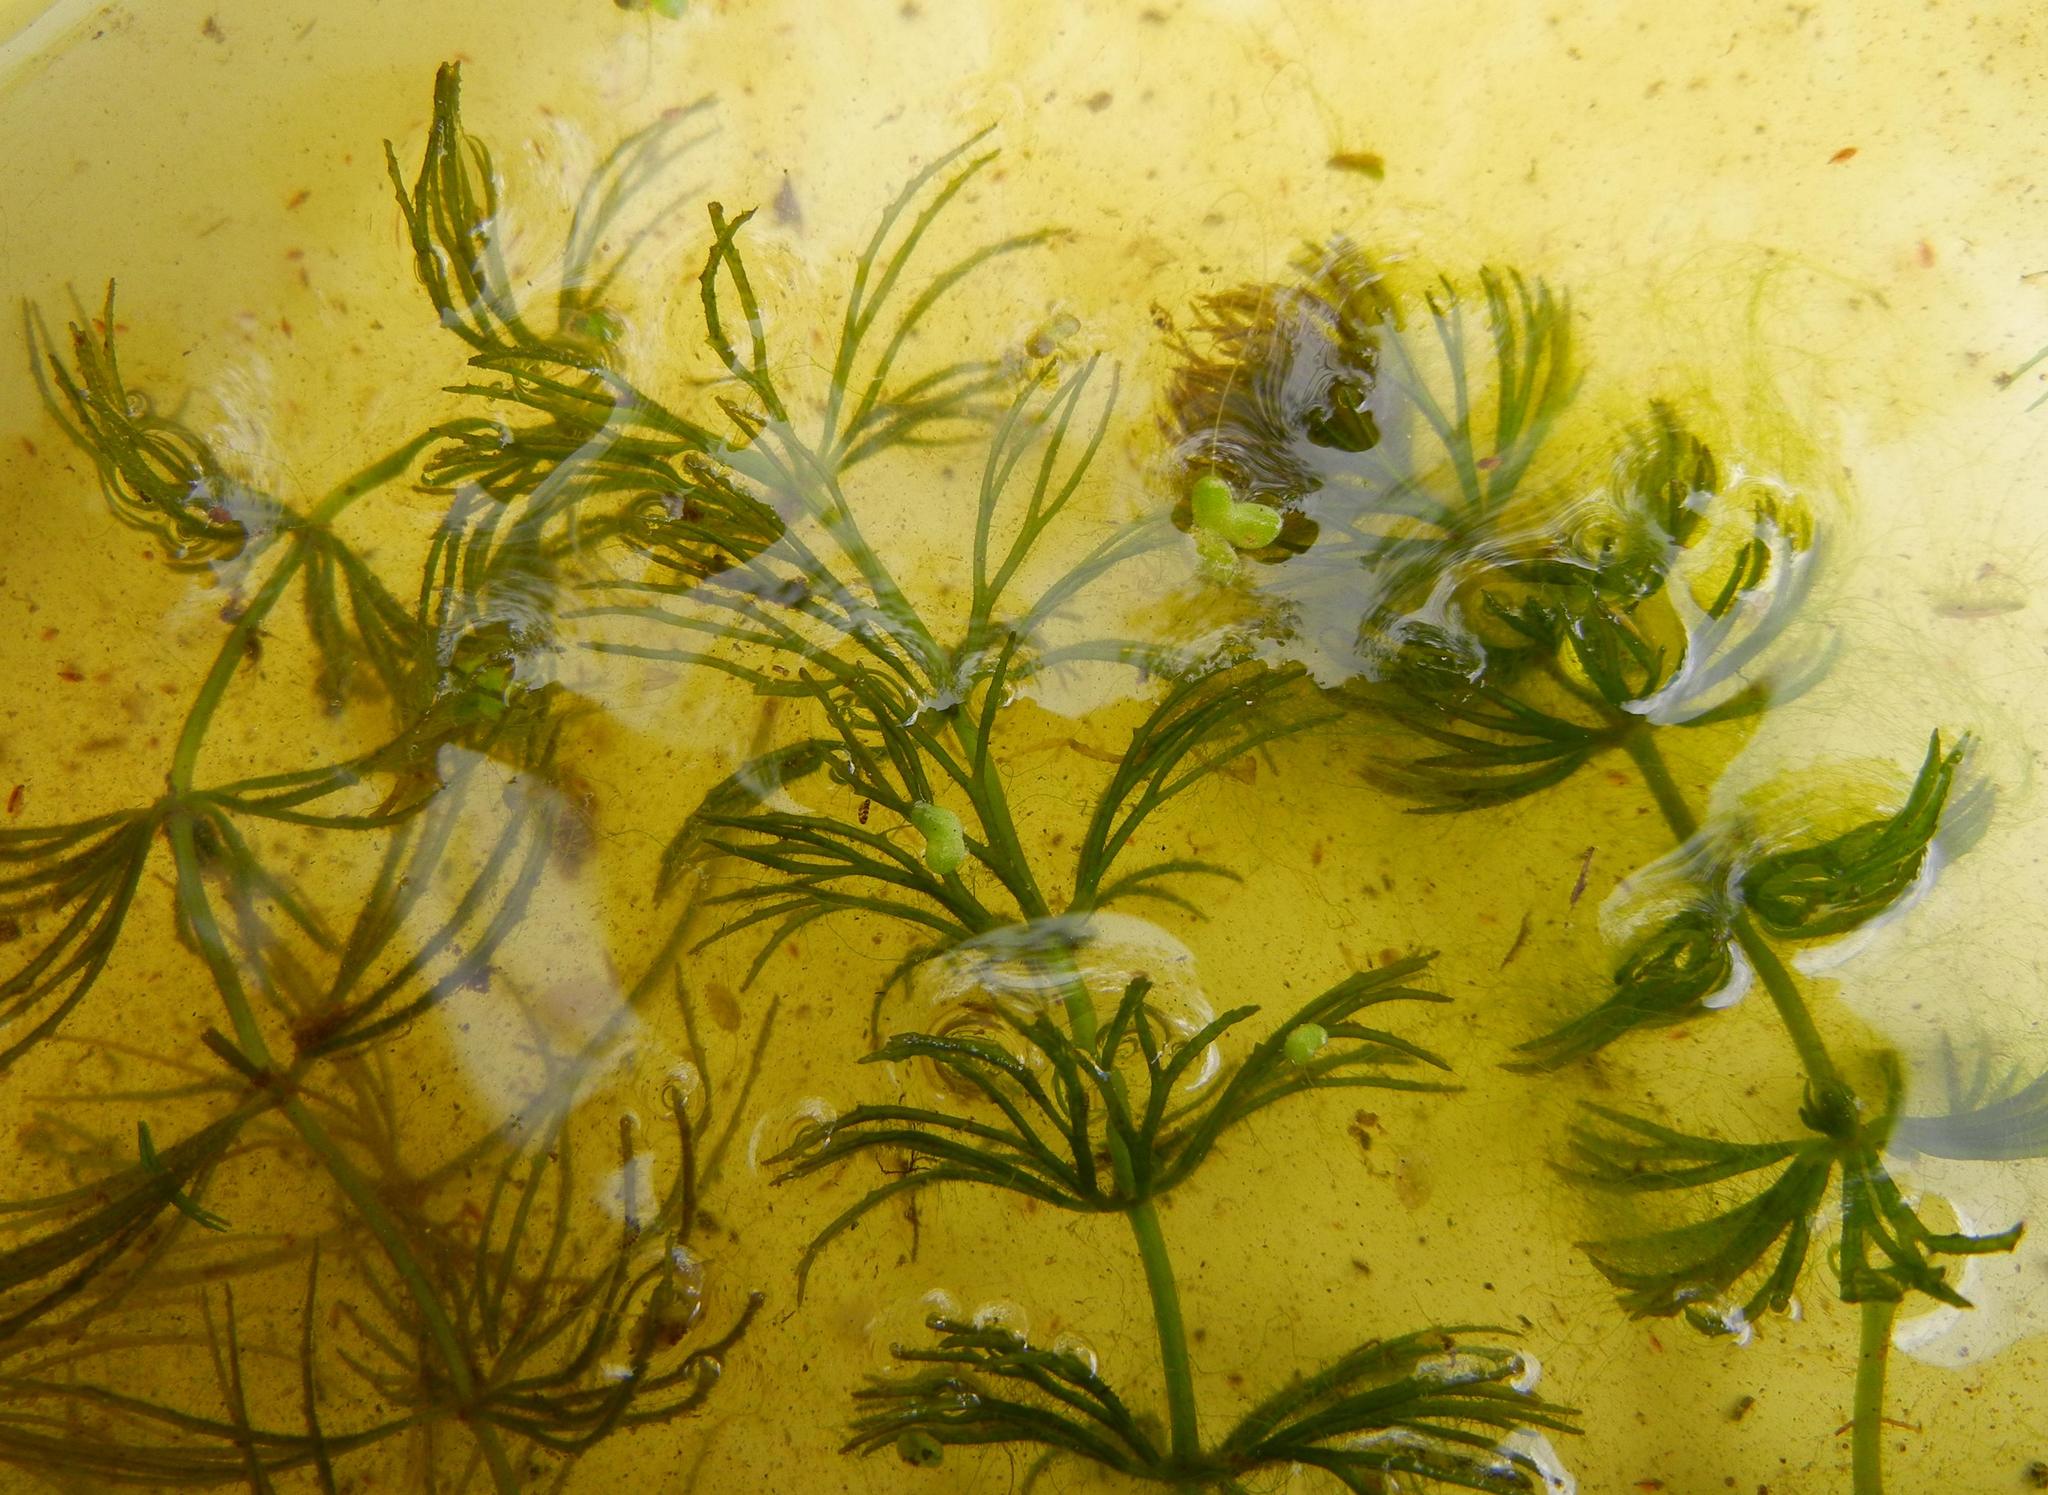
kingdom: Plantae
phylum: Tracheophyta
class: Magnoliopsida
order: Ceratophyllales
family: Ceratophyllaceae
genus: Ceratophyllum
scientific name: Ceratophyllum demersum
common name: Rigid hornwort
